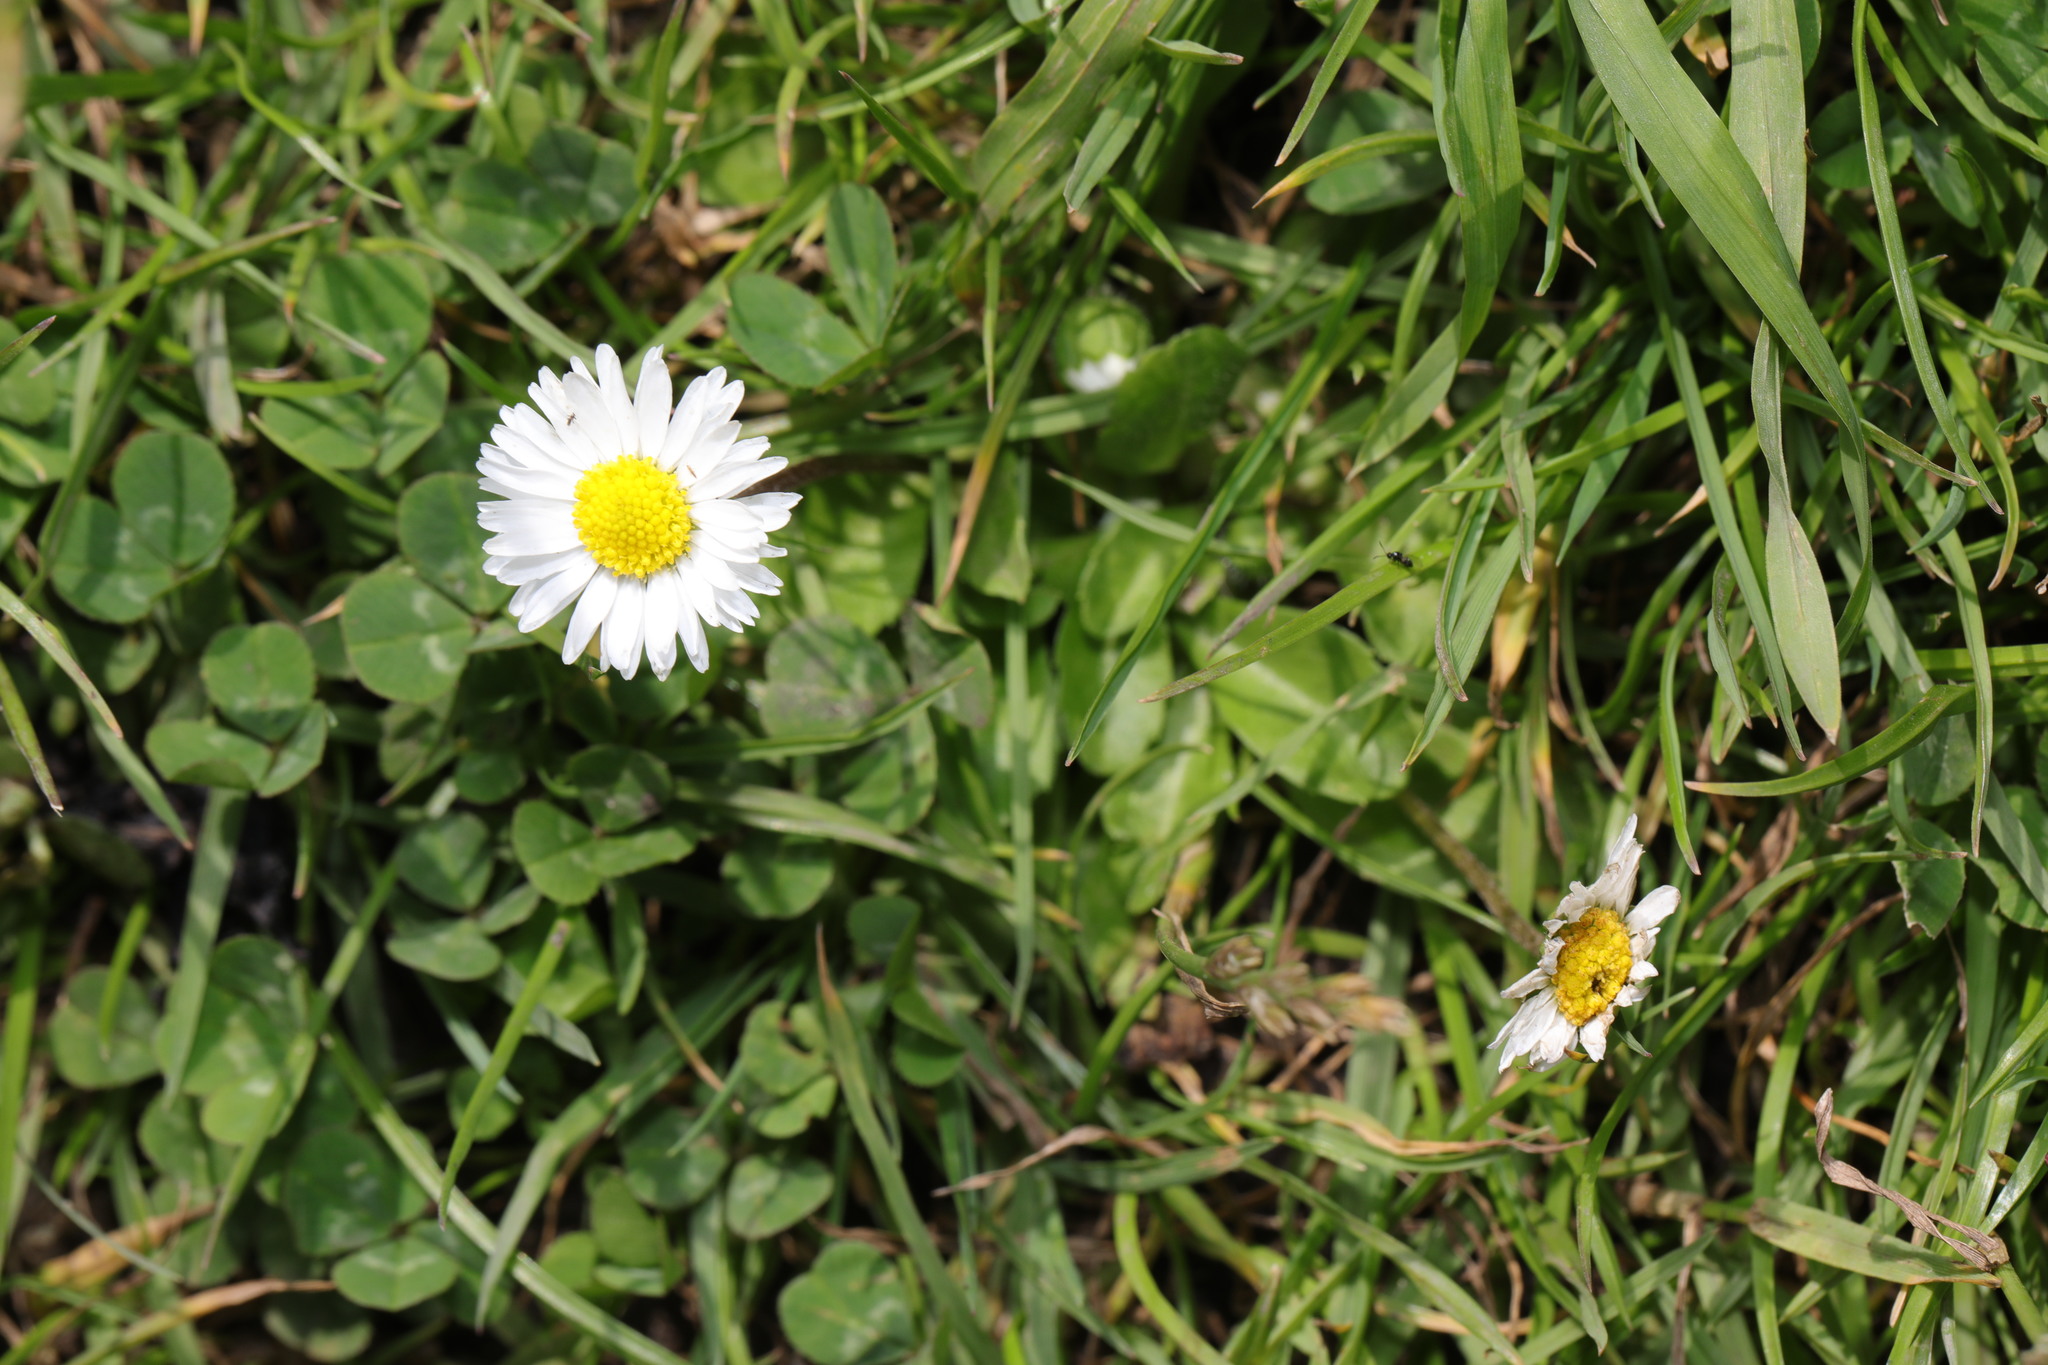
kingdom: Plantae
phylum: Tracheophyta
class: Magnoliopsida
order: Asterales
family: Asteraceae
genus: Bellis
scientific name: Bellis perennis
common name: Lawndaisy
